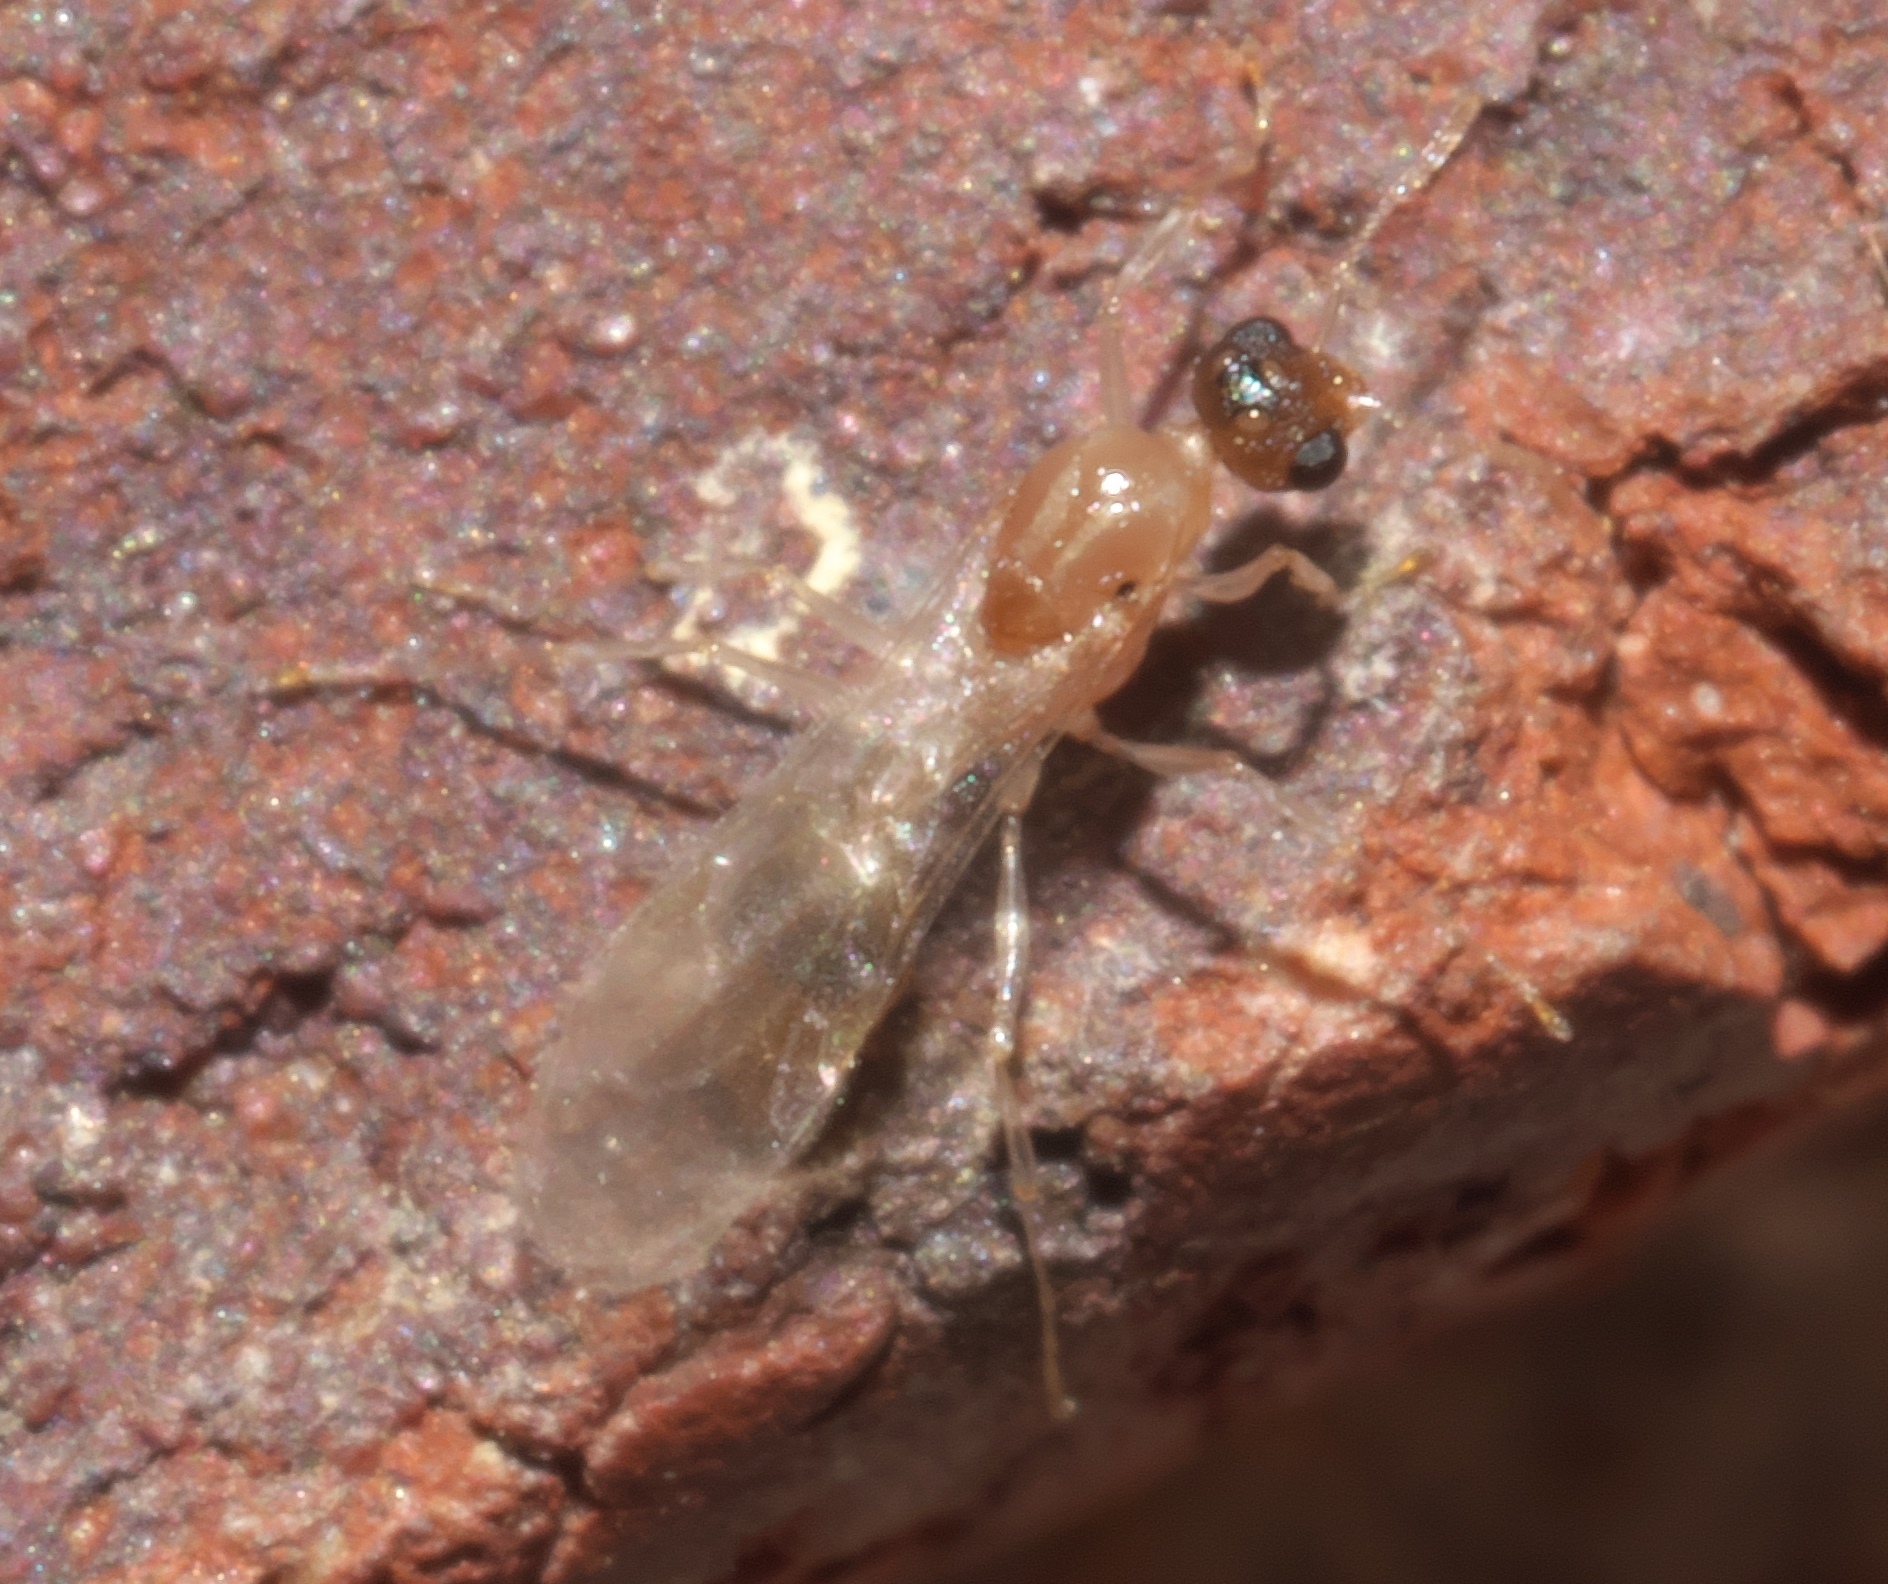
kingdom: Animalia
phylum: Arthropoda
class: Insecta
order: Hymenoptera
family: Formicidae
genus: Temnothorax
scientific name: Temnothorax curvispinosus
